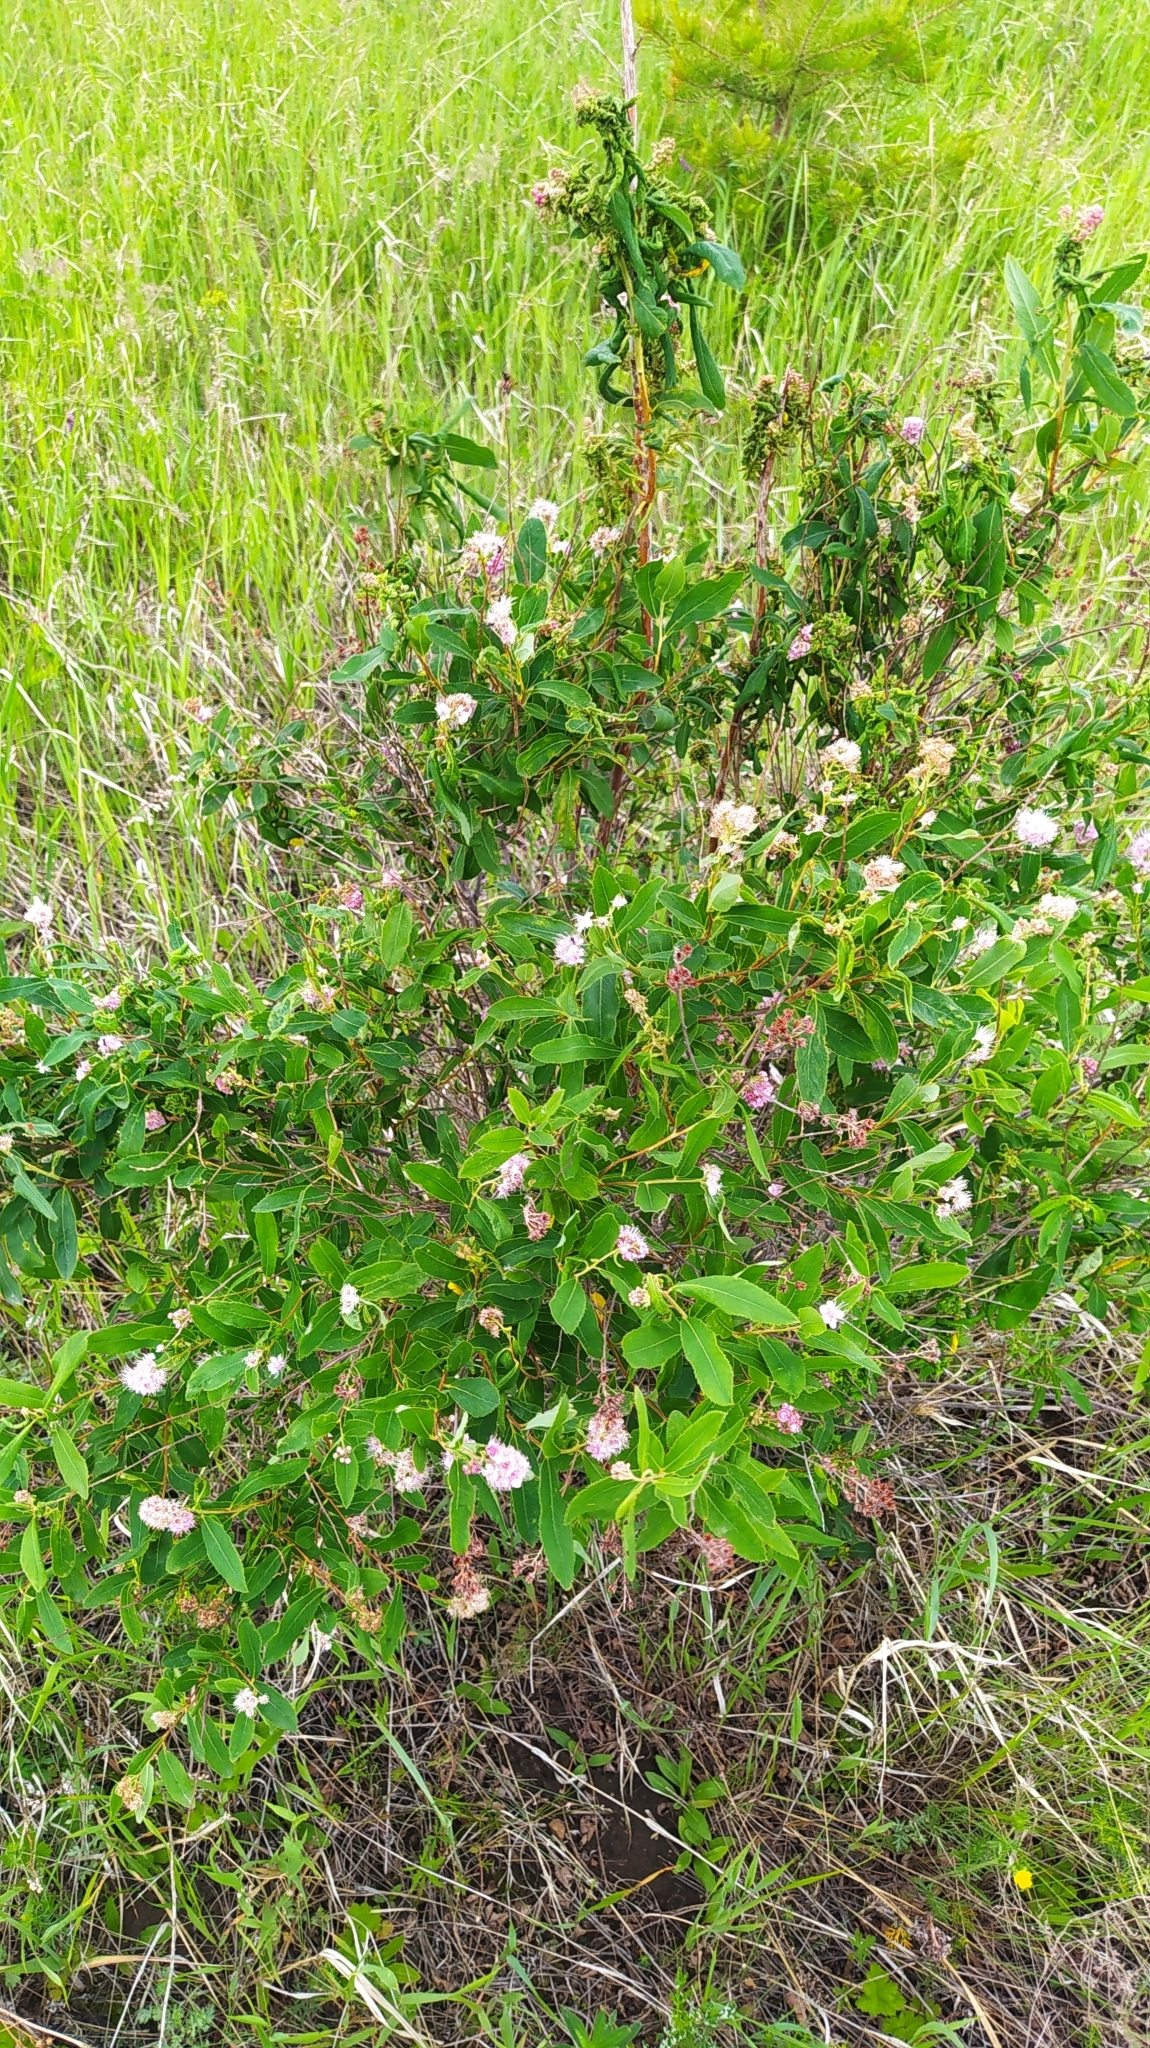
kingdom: Plantae
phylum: Tracheophyta
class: Magnoliopsida
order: Rosales
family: Rosaceae
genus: Spiraea
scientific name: Spiraea salicifolia
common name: Bridewort
